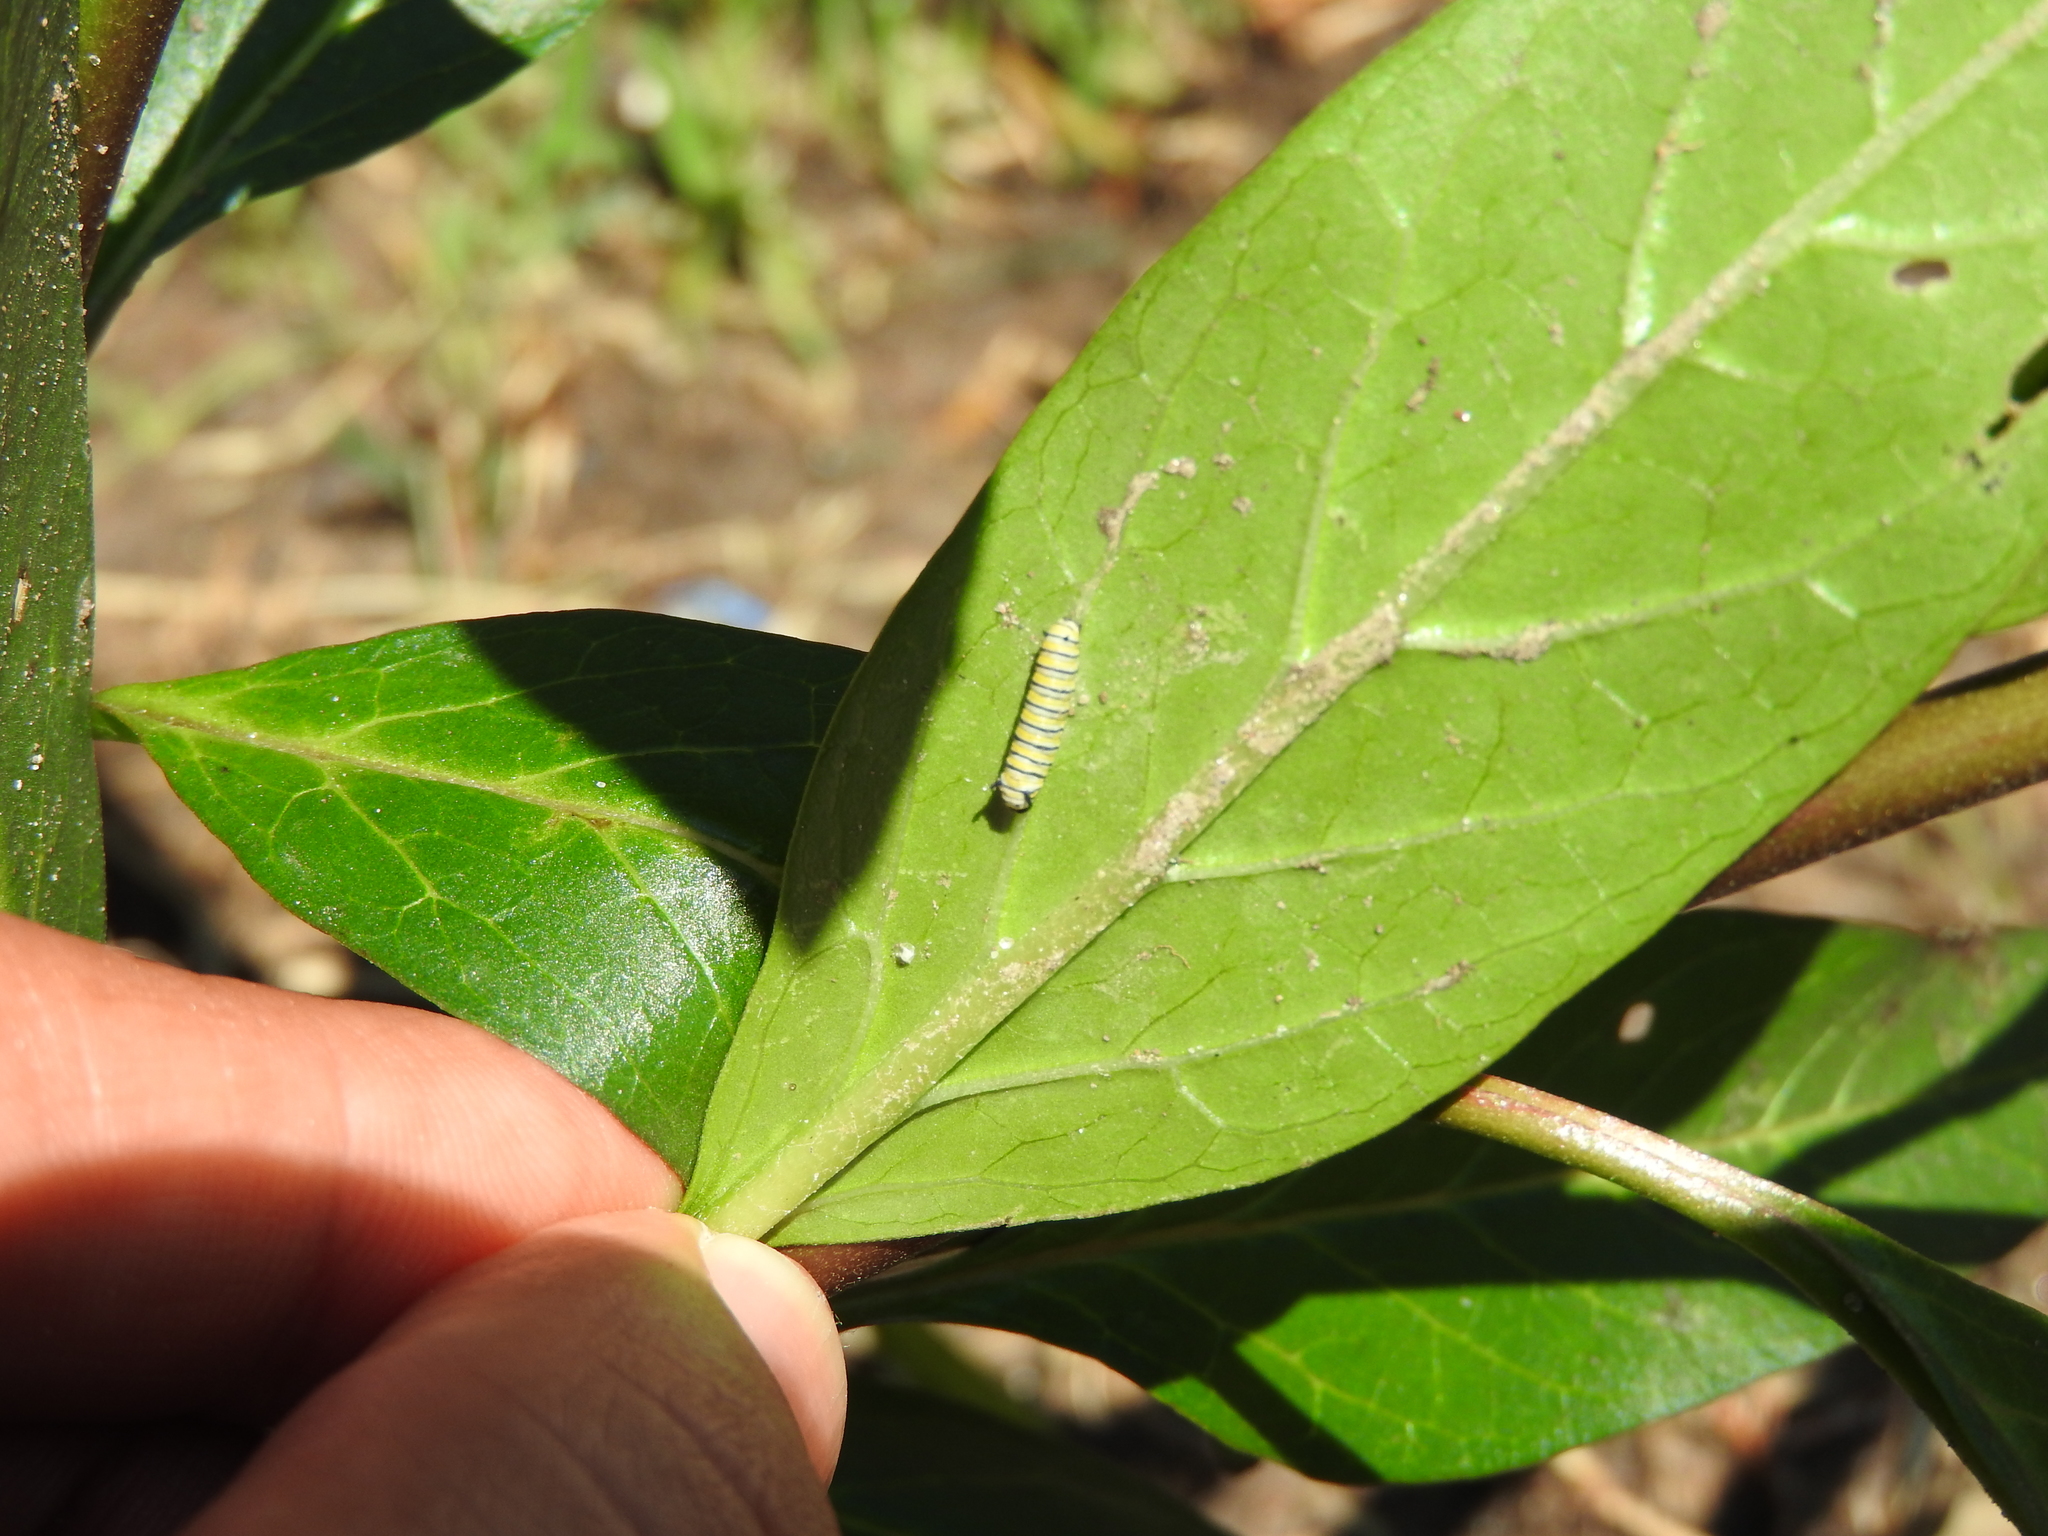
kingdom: Animalia
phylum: Arthropoda
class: Insecta
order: Lepidoptera
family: Nymphalidae
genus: Danaus
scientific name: Danaus plexippus
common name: Monarch
